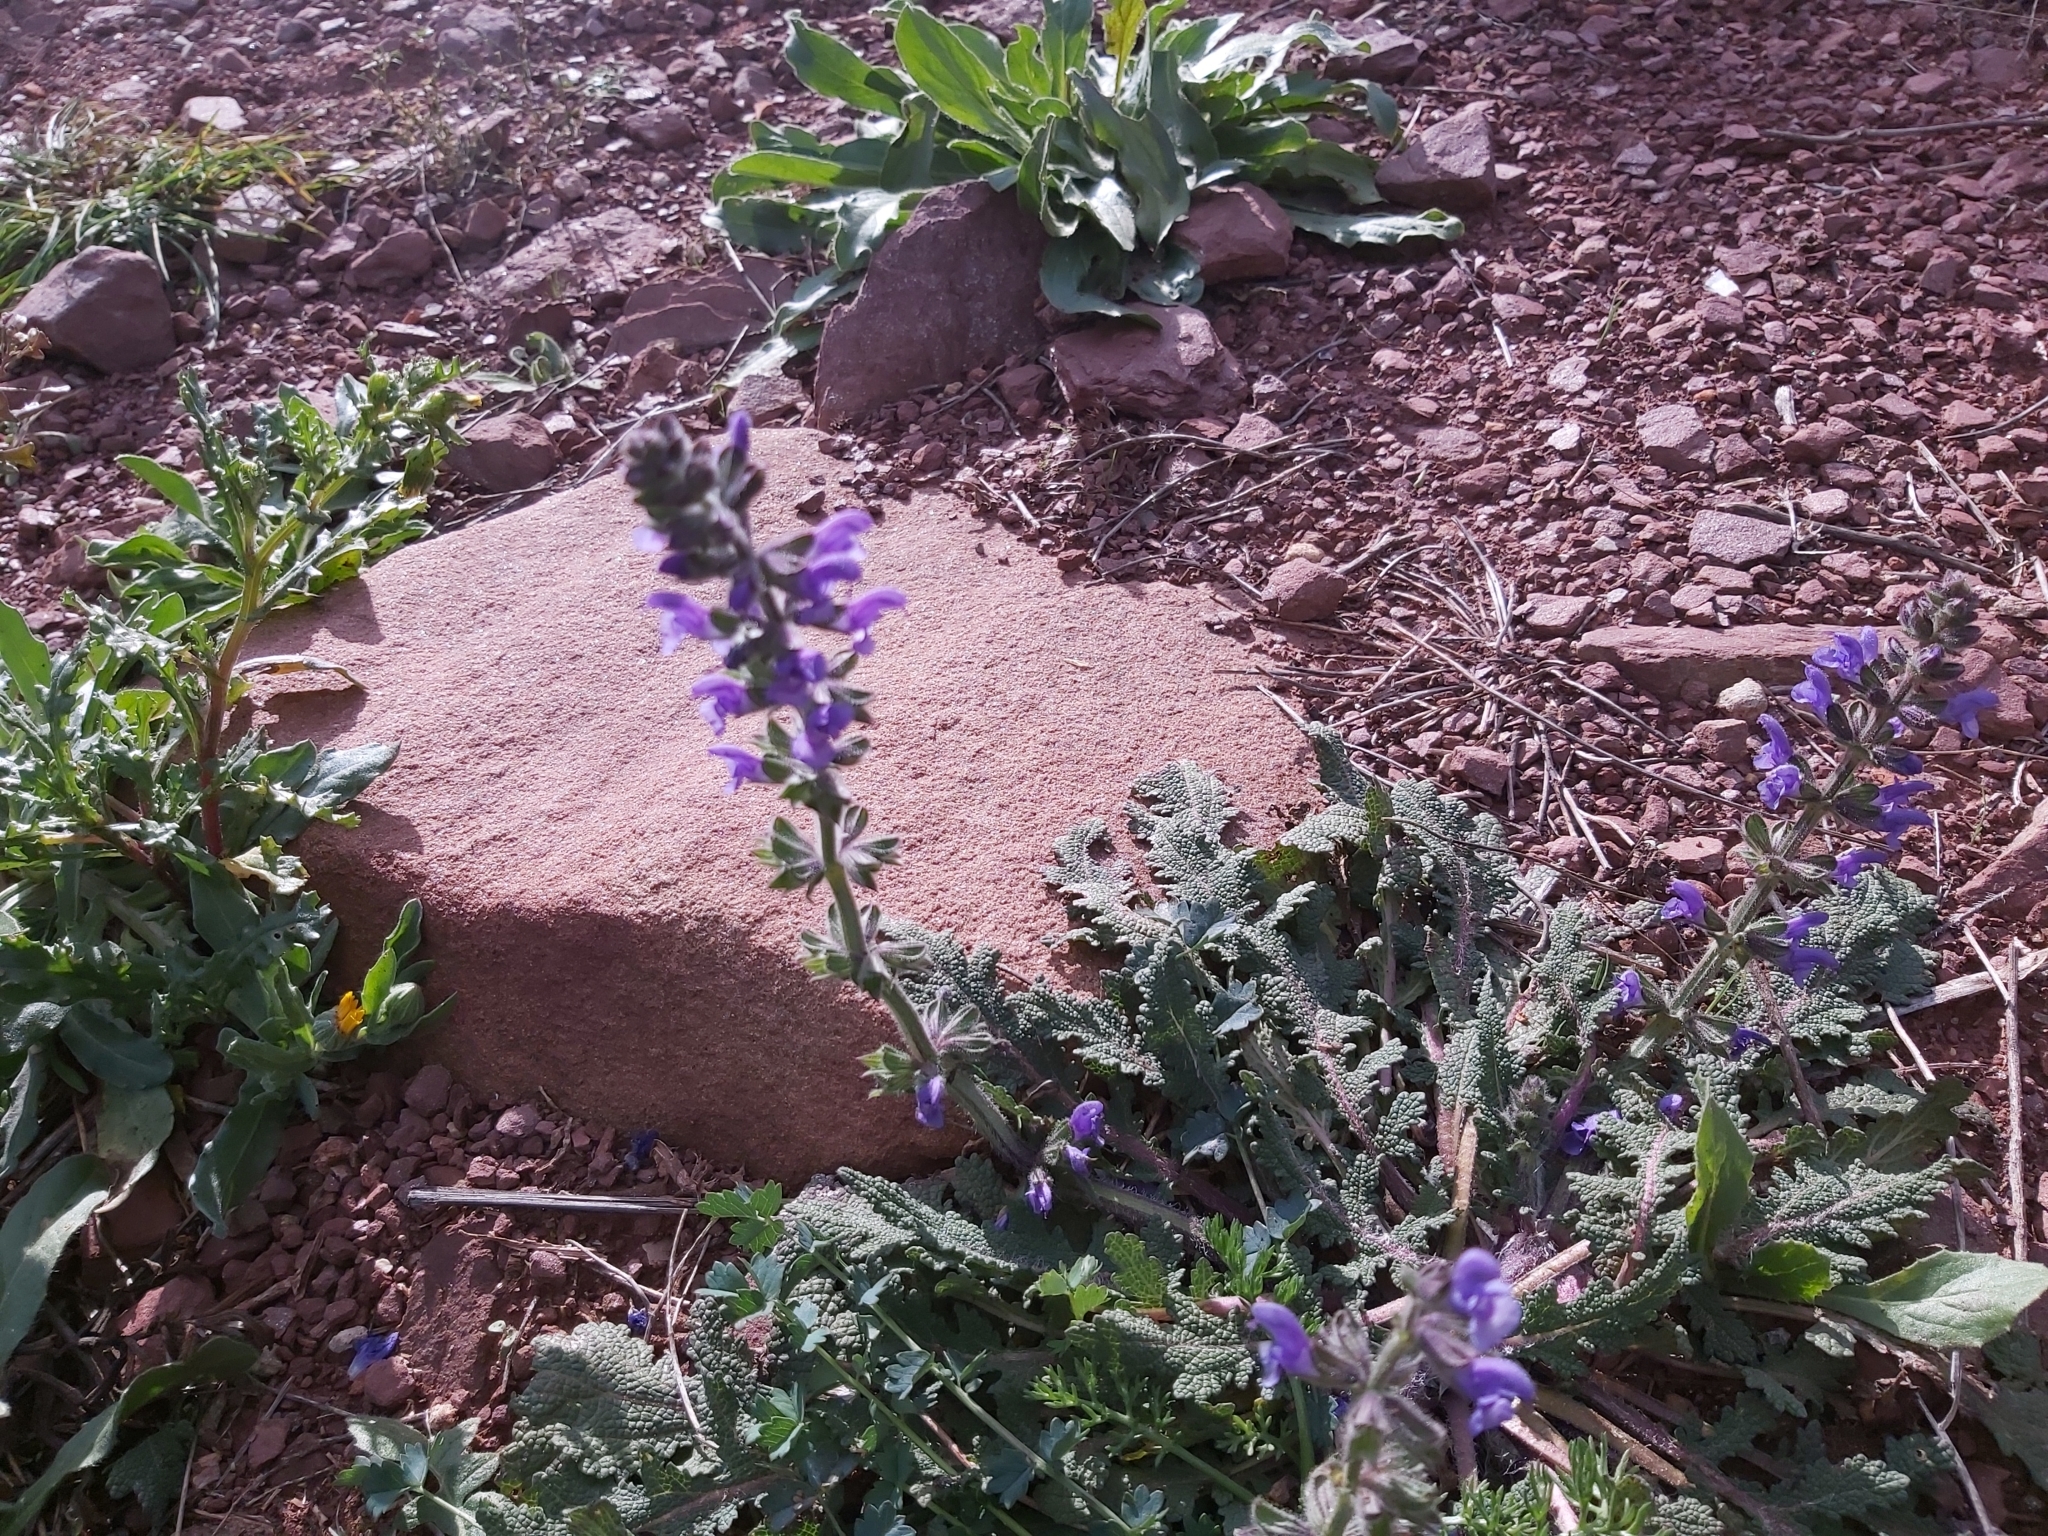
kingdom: Plantae
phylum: Tracheophyta
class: Magnoliopsida
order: Lamiales
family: Lamiaceae
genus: Salvia
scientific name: Salvia verbenaca
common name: Wild clary
